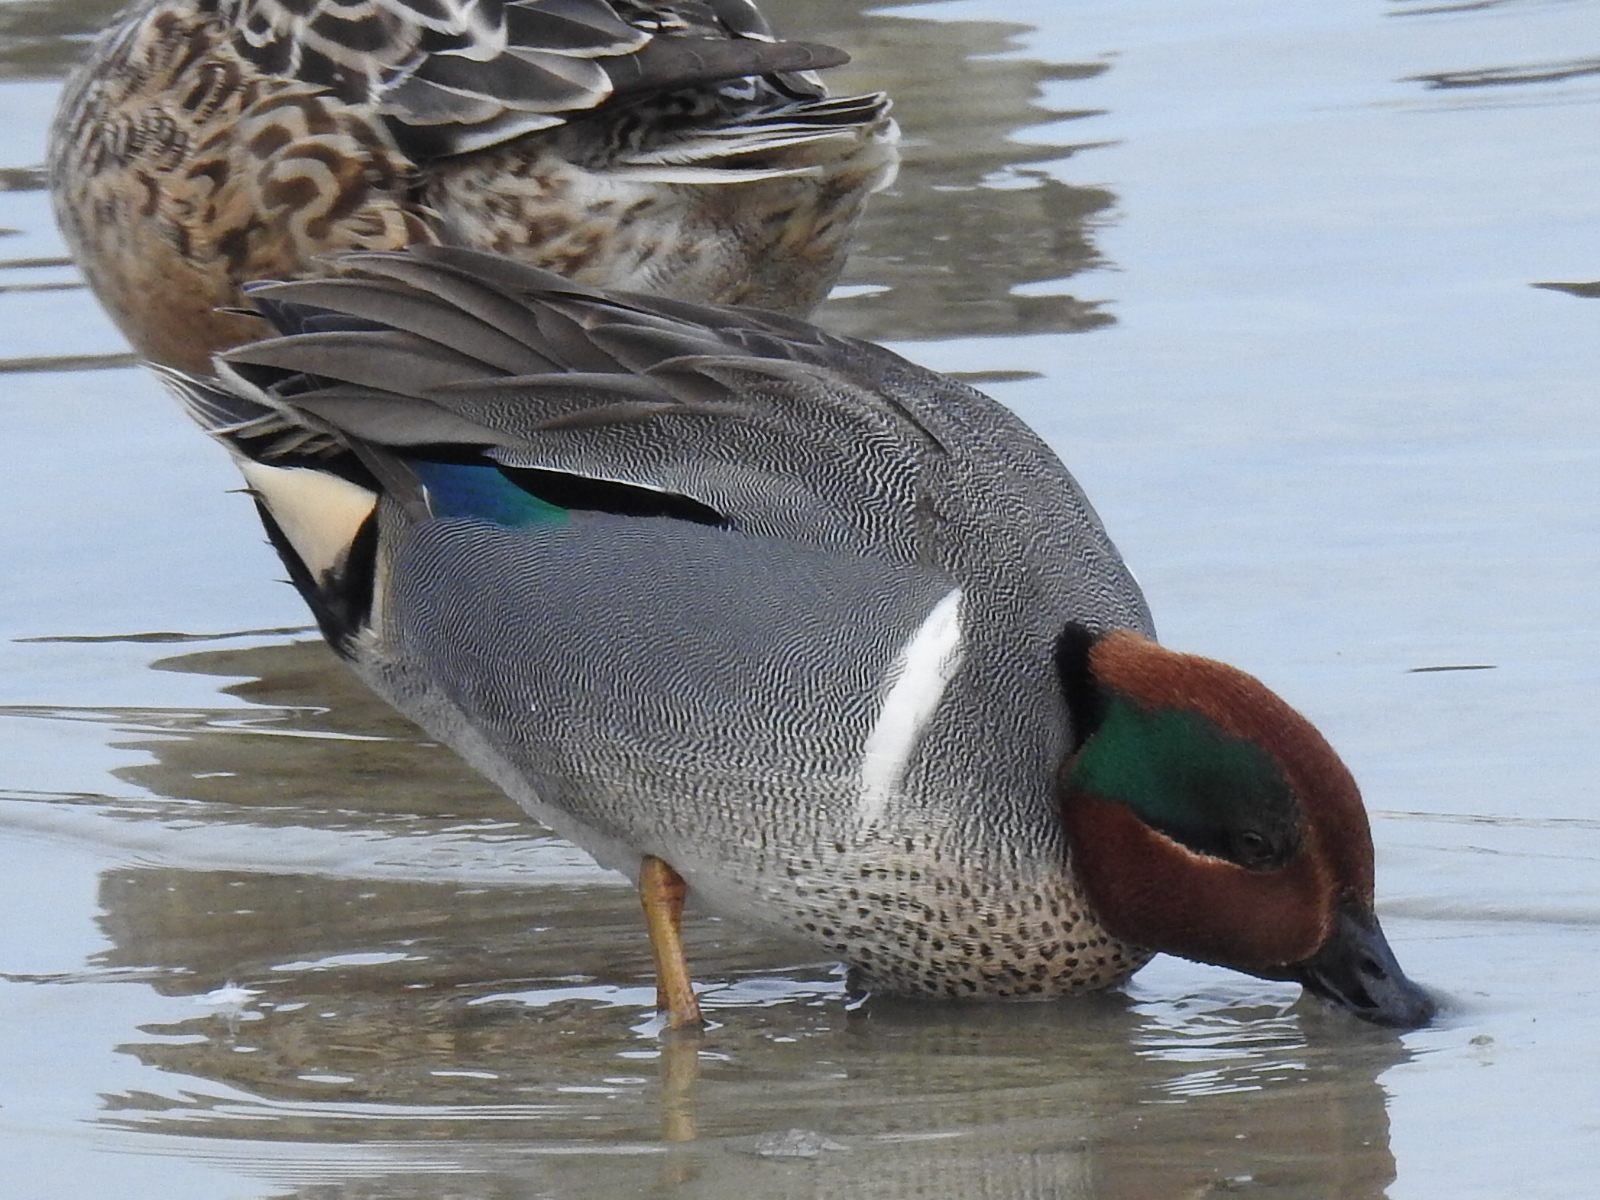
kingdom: Animalia
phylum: Chordata
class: Aves
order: Anseriformes
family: Anatidae
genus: Anas
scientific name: Anas crecca
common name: Eurasian teal
